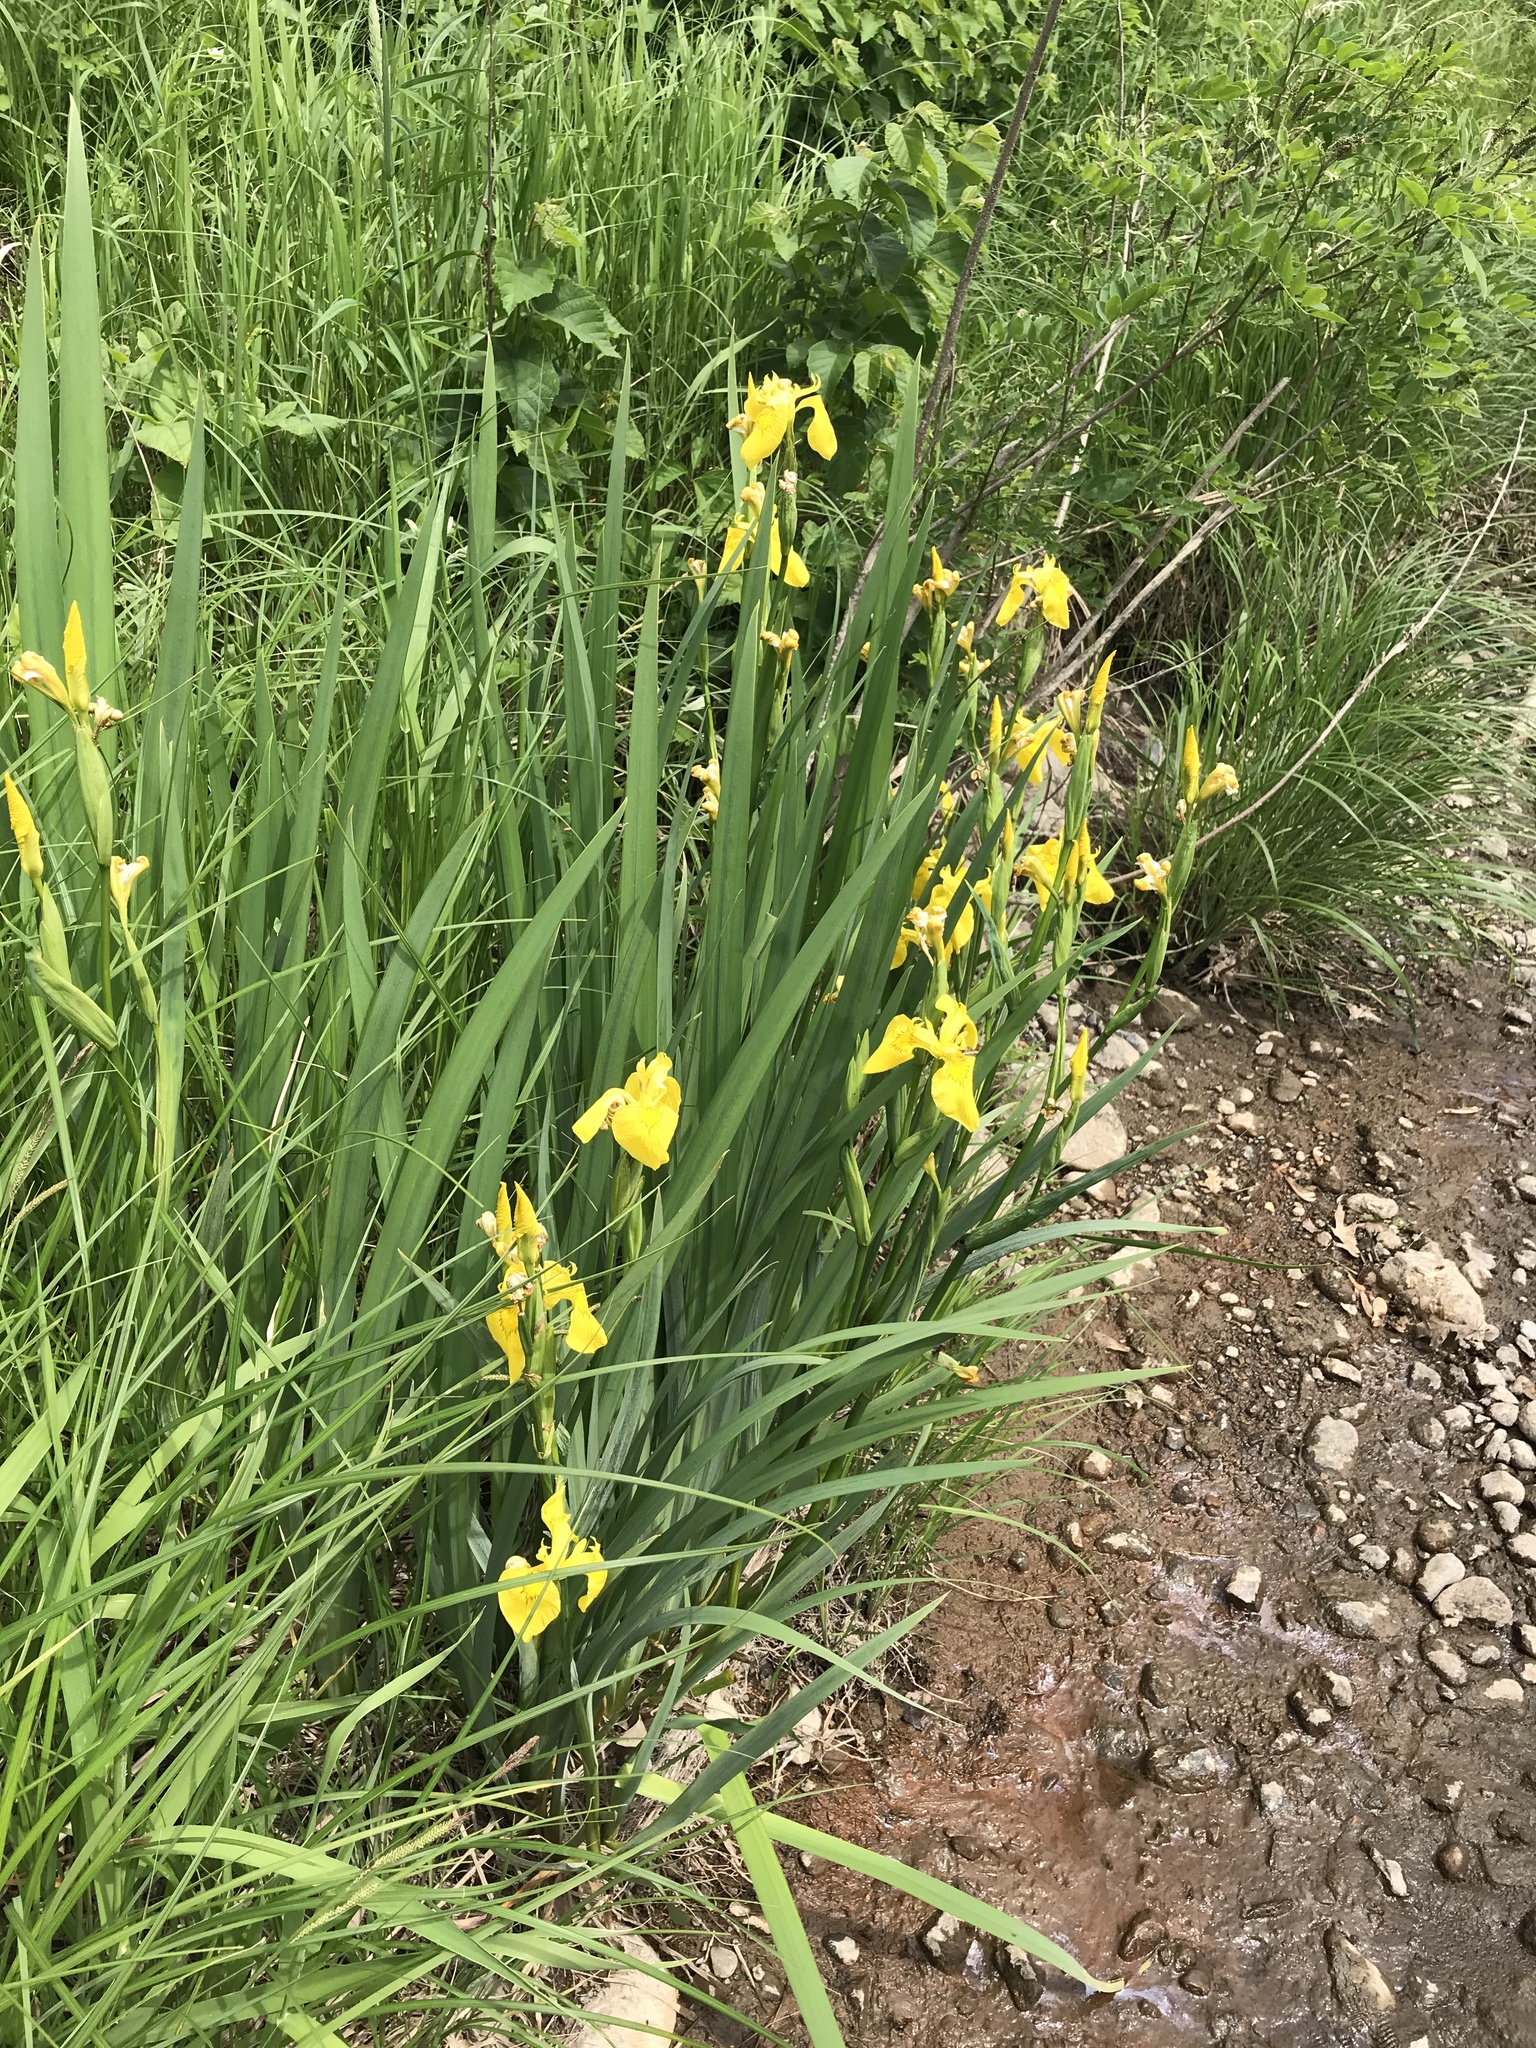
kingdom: Plantae
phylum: Tracheophyta
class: Liliopsida
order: Asparagales
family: Iridaceae
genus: Iris
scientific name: Iris pseudacorus
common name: Yellow flag
